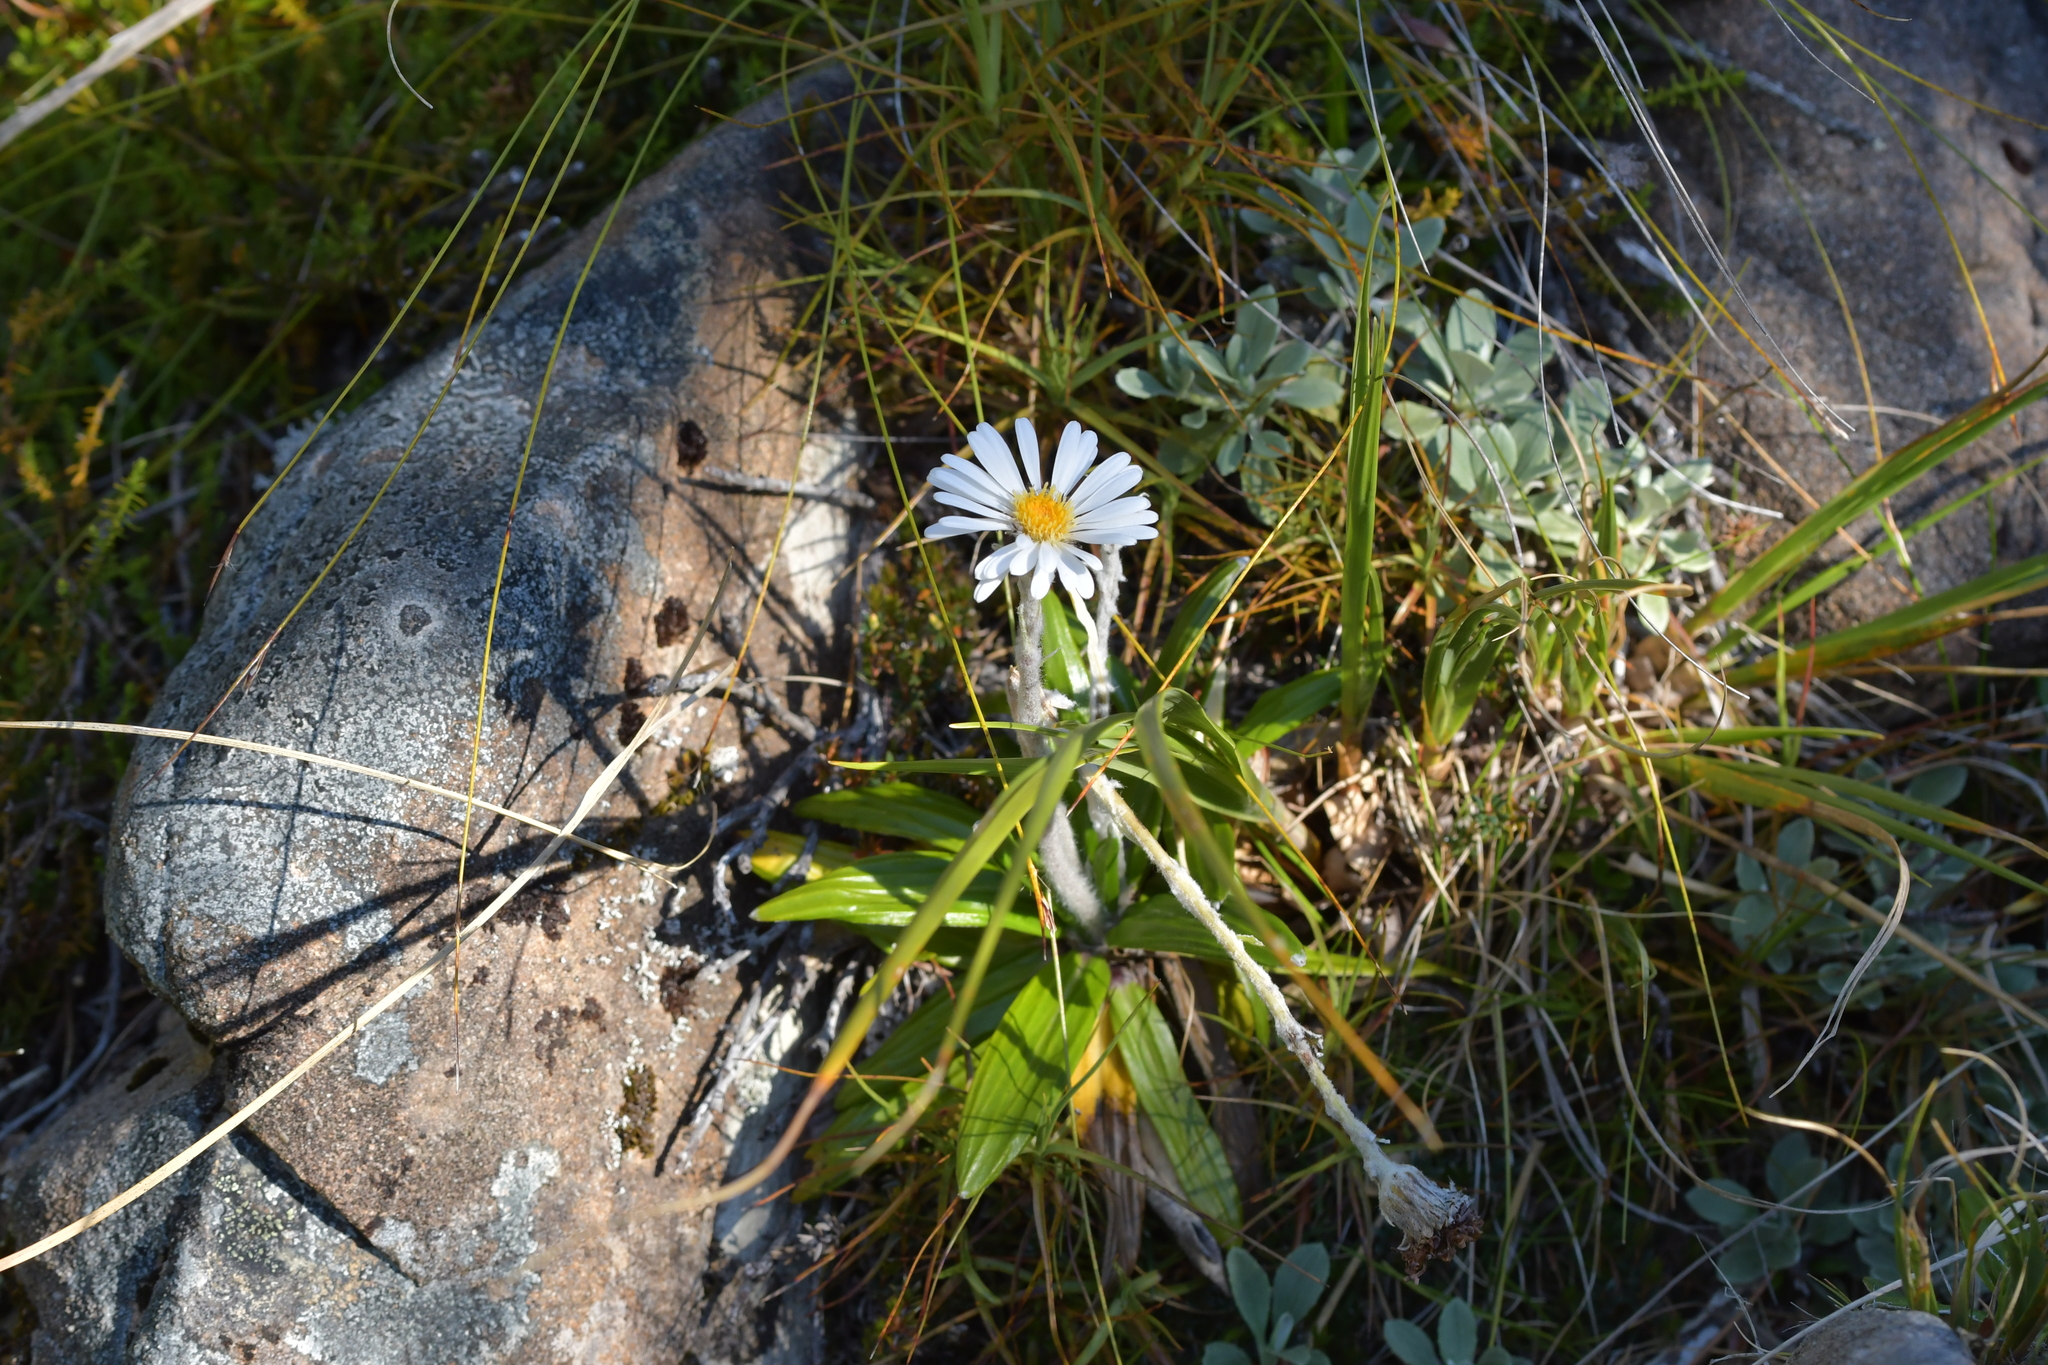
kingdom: Plantae
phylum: Tracheophyta
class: Magnoliopsida
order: Asterales
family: Asteraceae
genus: Celmisia
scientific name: Celmisia spectabilis
